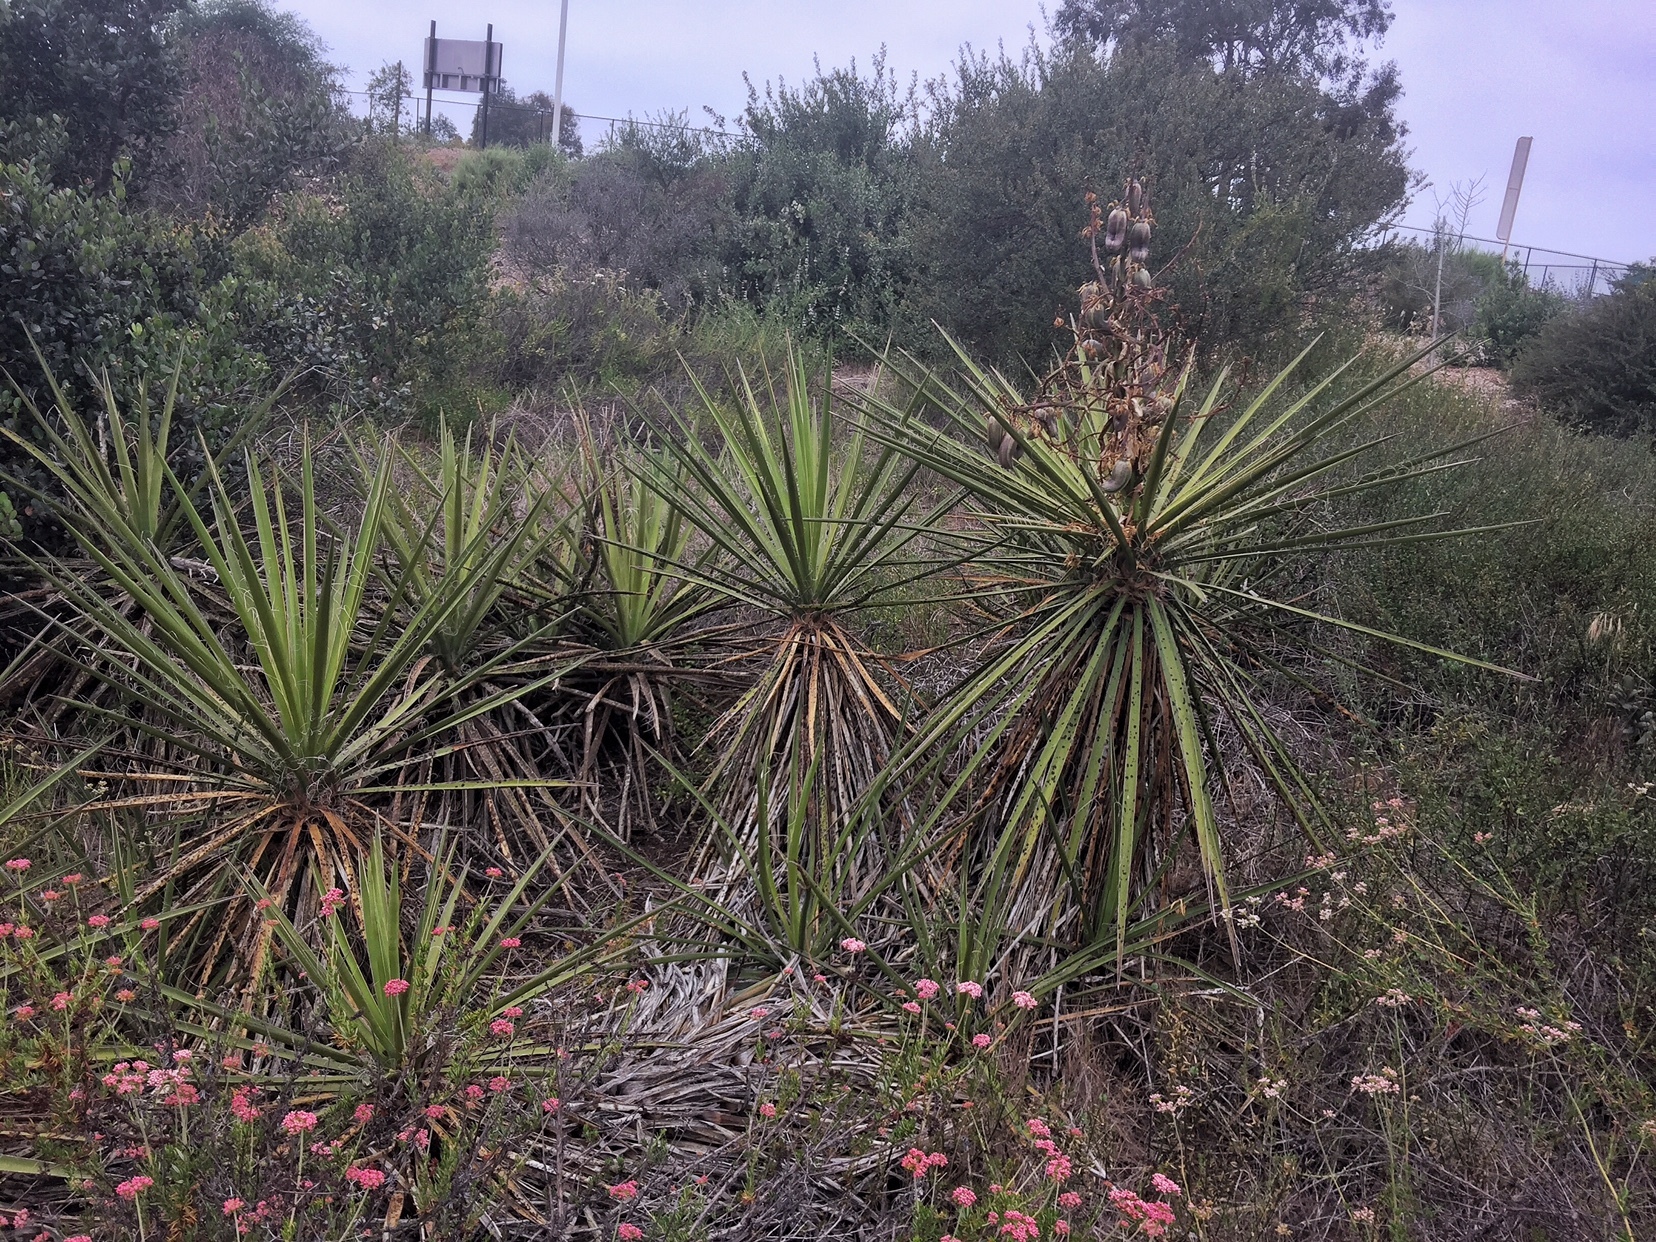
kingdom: Plantae
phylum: Tracheophyta
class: Liliopsida
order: Asparagales
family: Asparagaceae
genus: Yucca
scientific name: Yucca schidigera
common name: Mojave yucca
